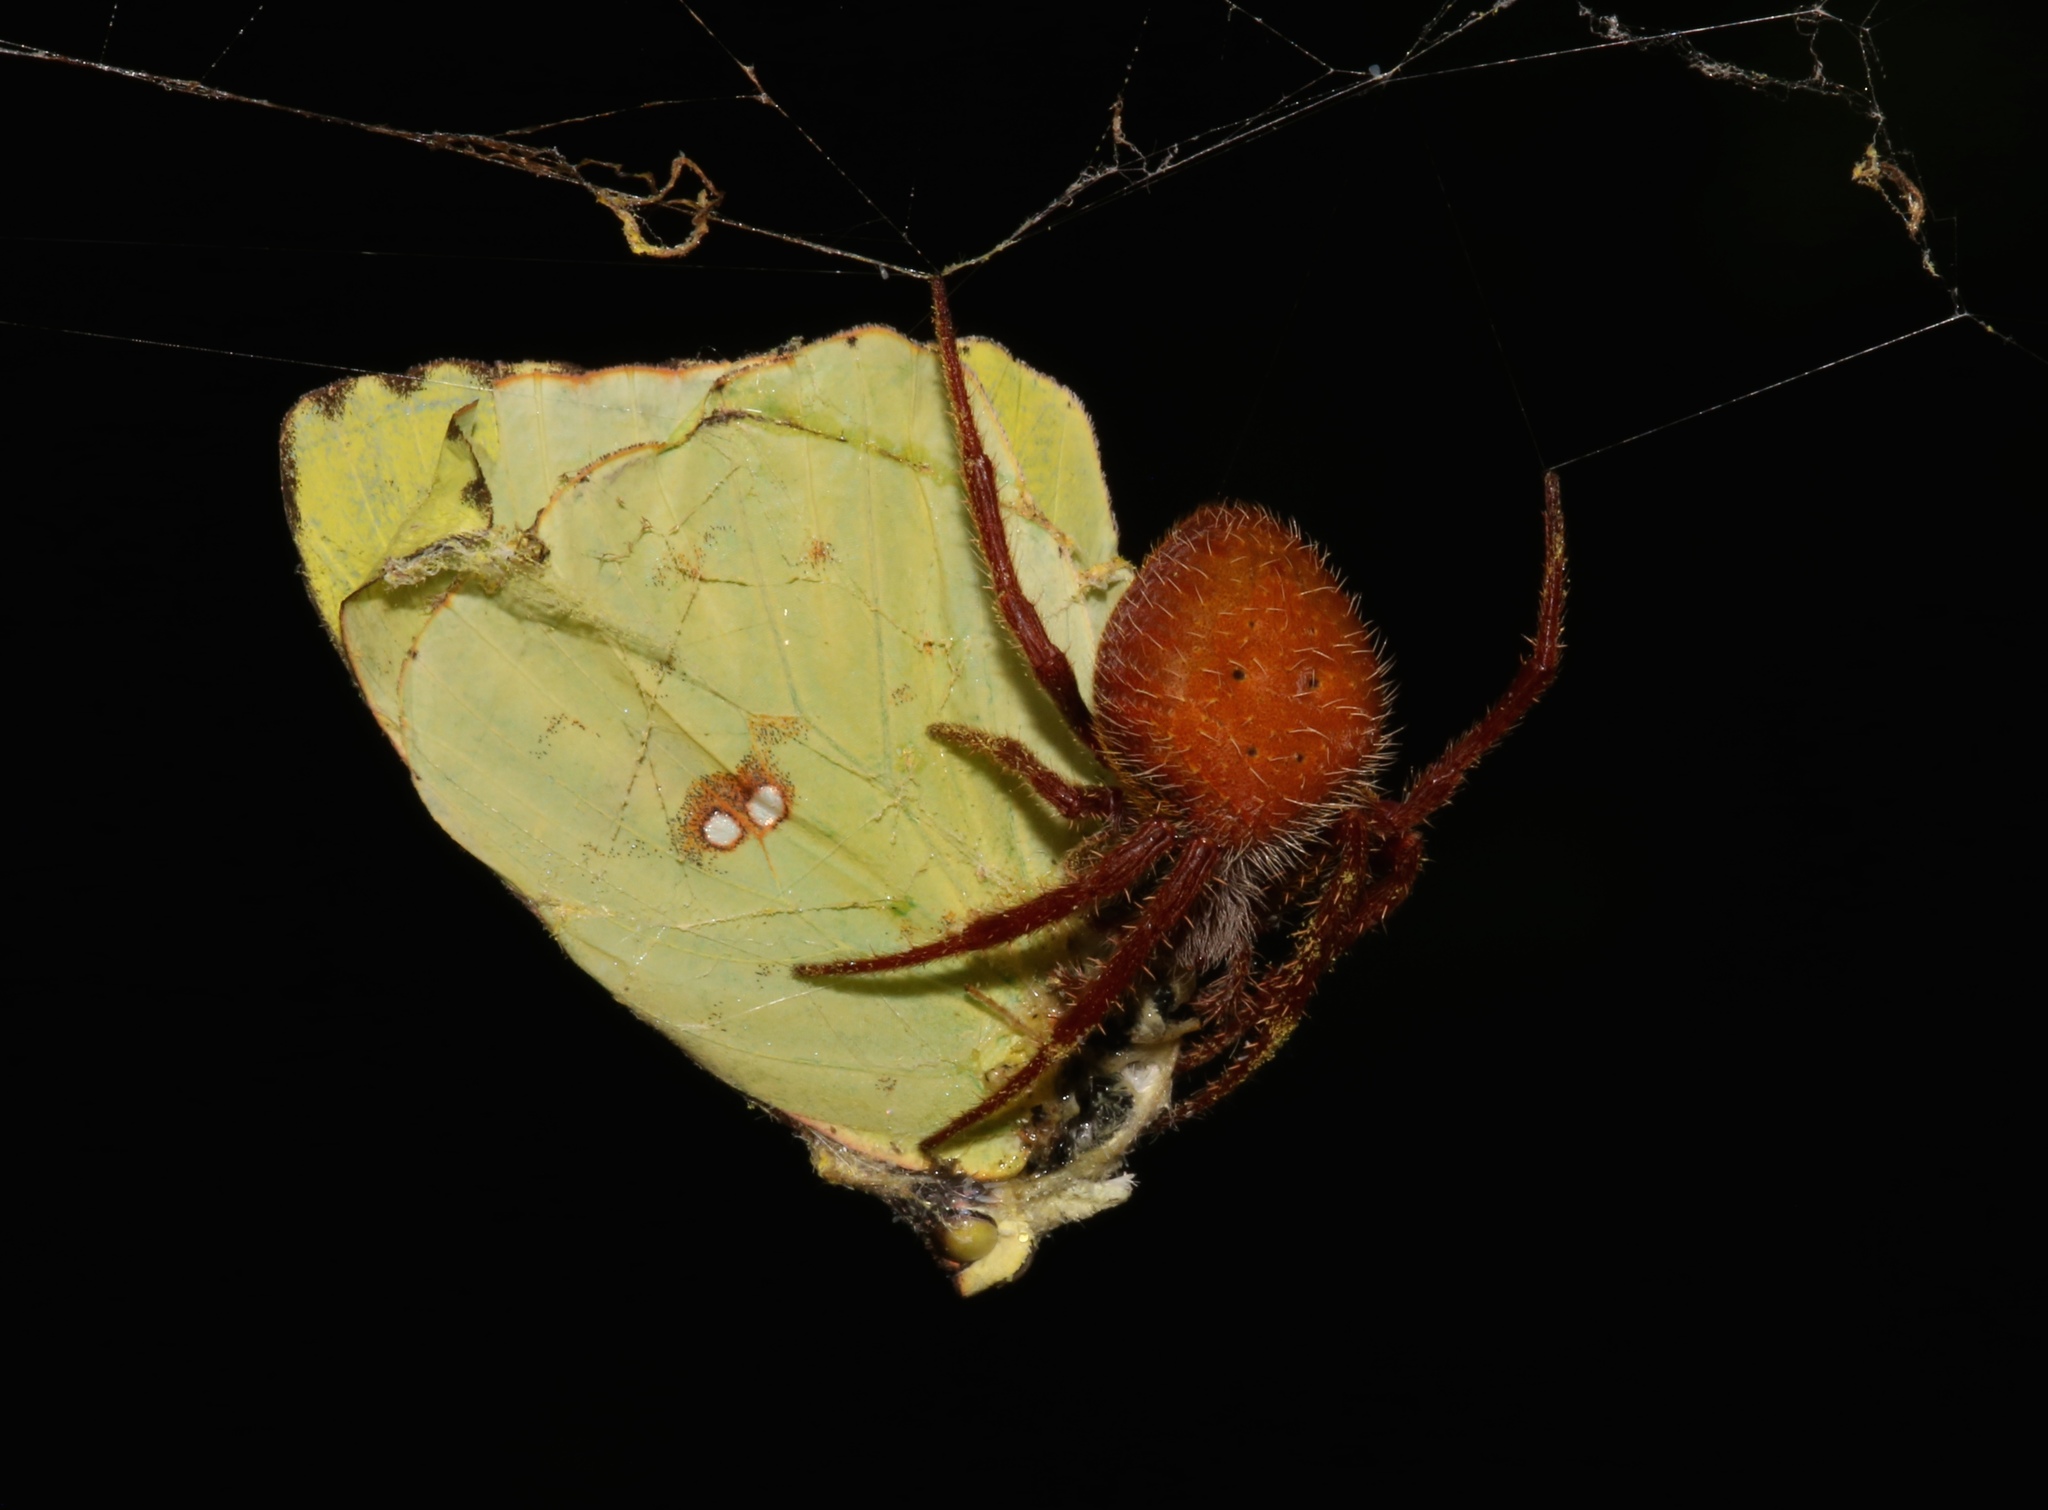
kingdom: Animalia
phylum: Arthropoda
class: Insecta
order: Lepidoptera
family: Pieridae
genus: Phoebis
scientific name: Phoebis sennae
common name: Cloudless sulphur
